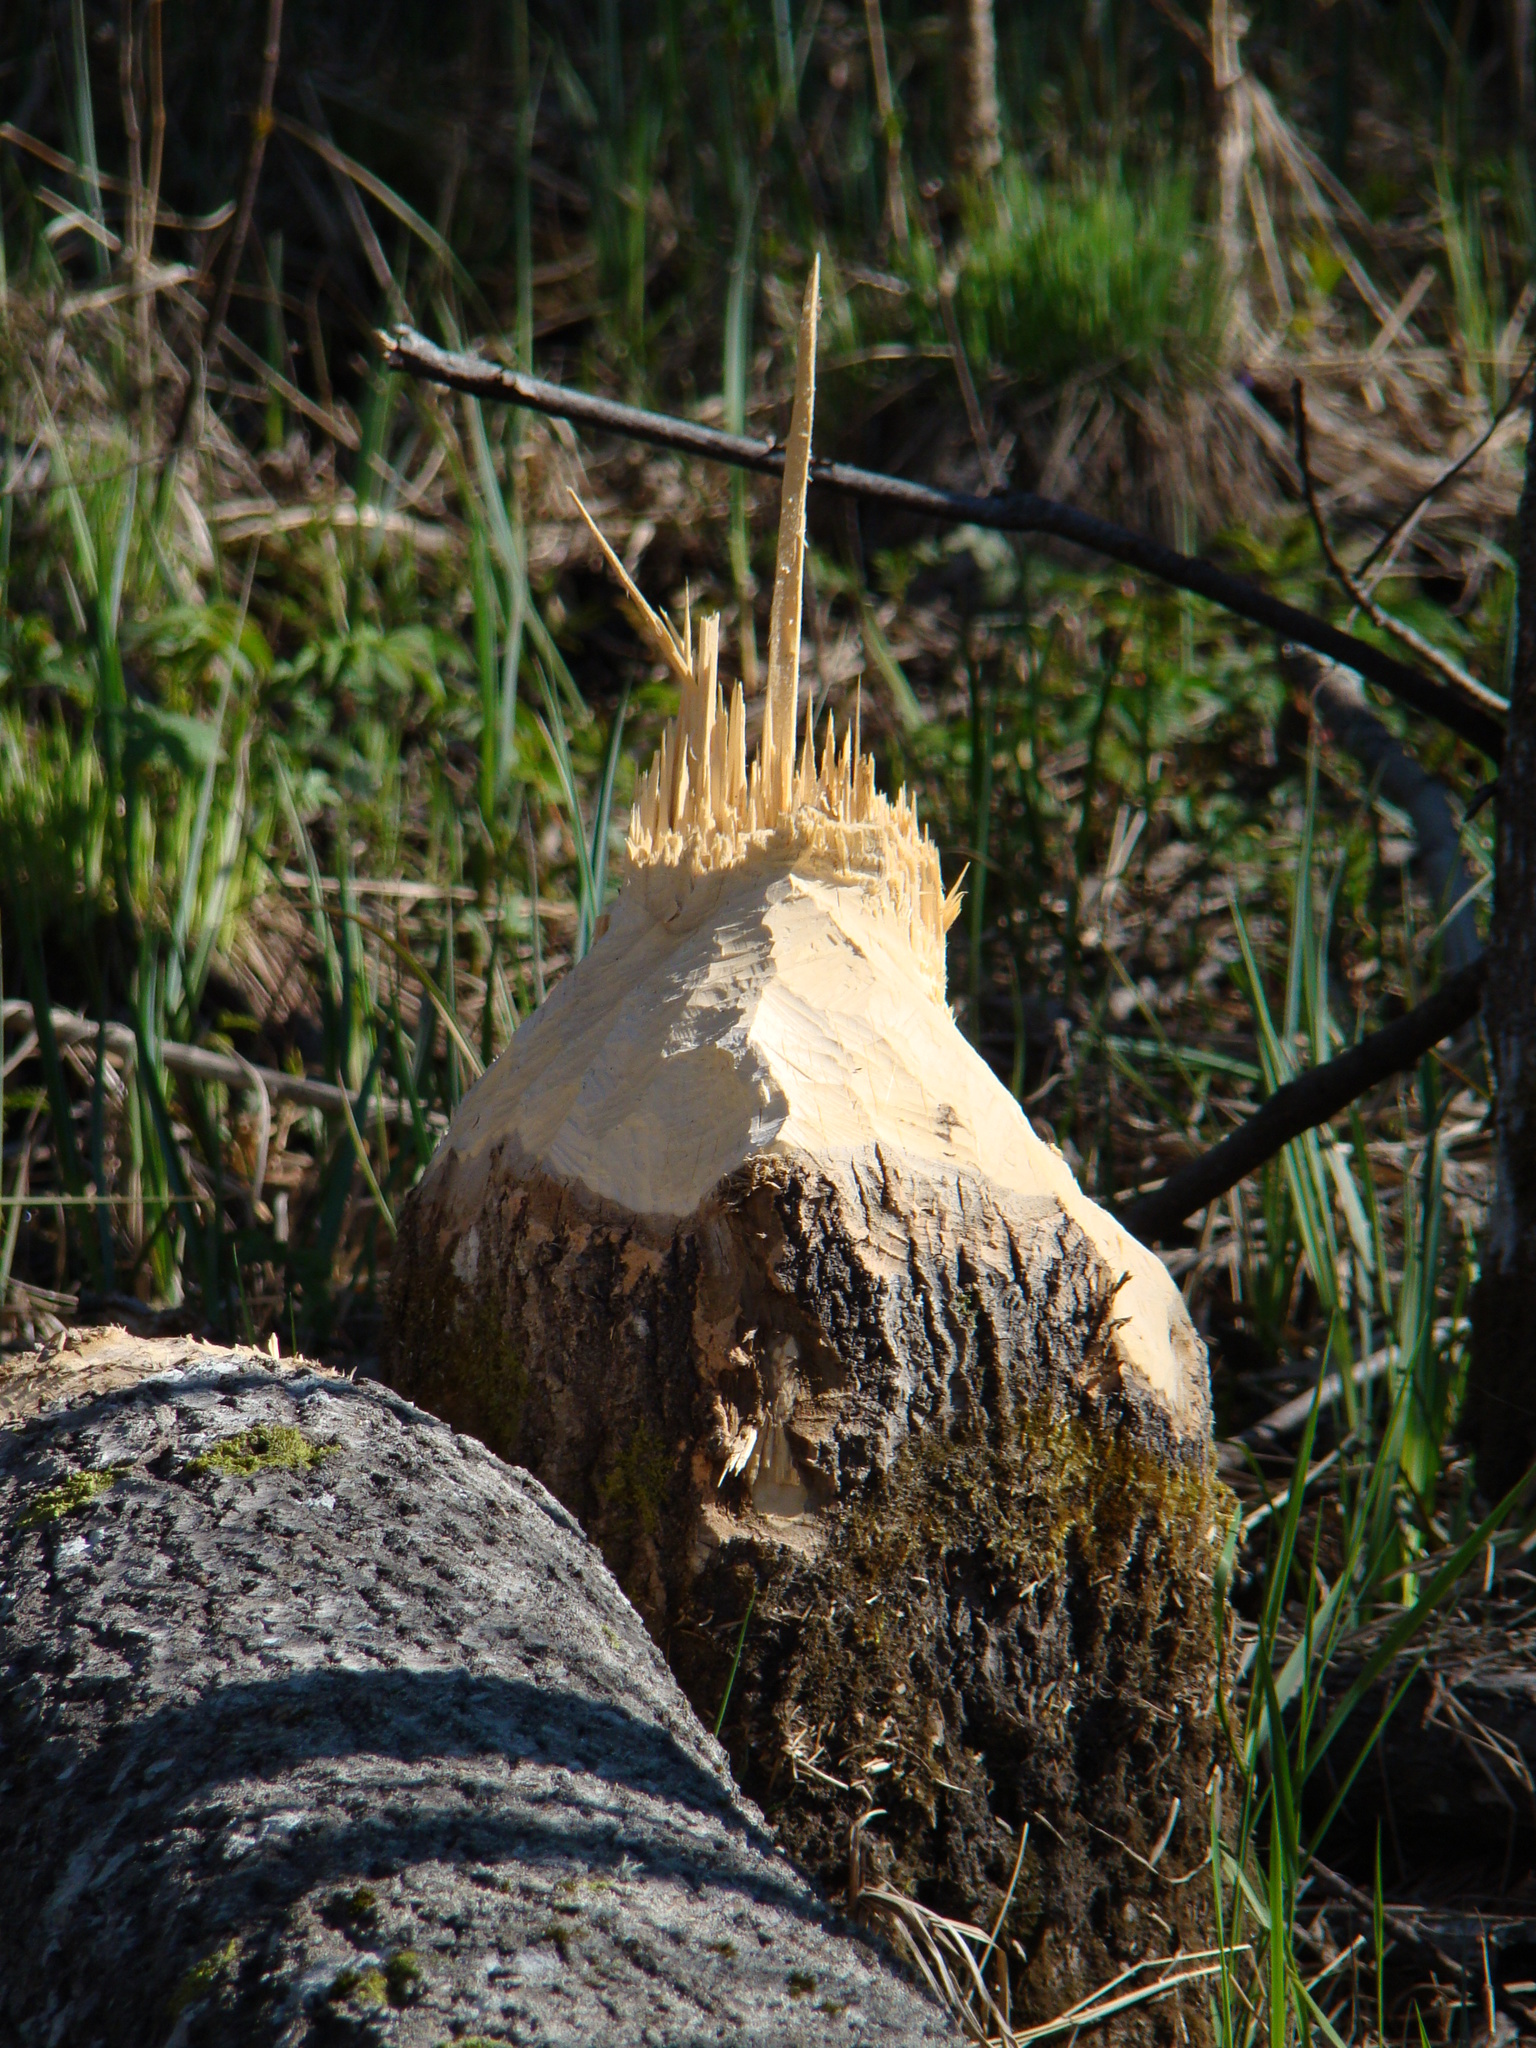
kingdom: Animalia
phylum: Chordata
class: Mammalia
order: Rodentia
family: Castoridae
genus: Castor
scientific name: Castor fiber
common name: Eurasian beaver
